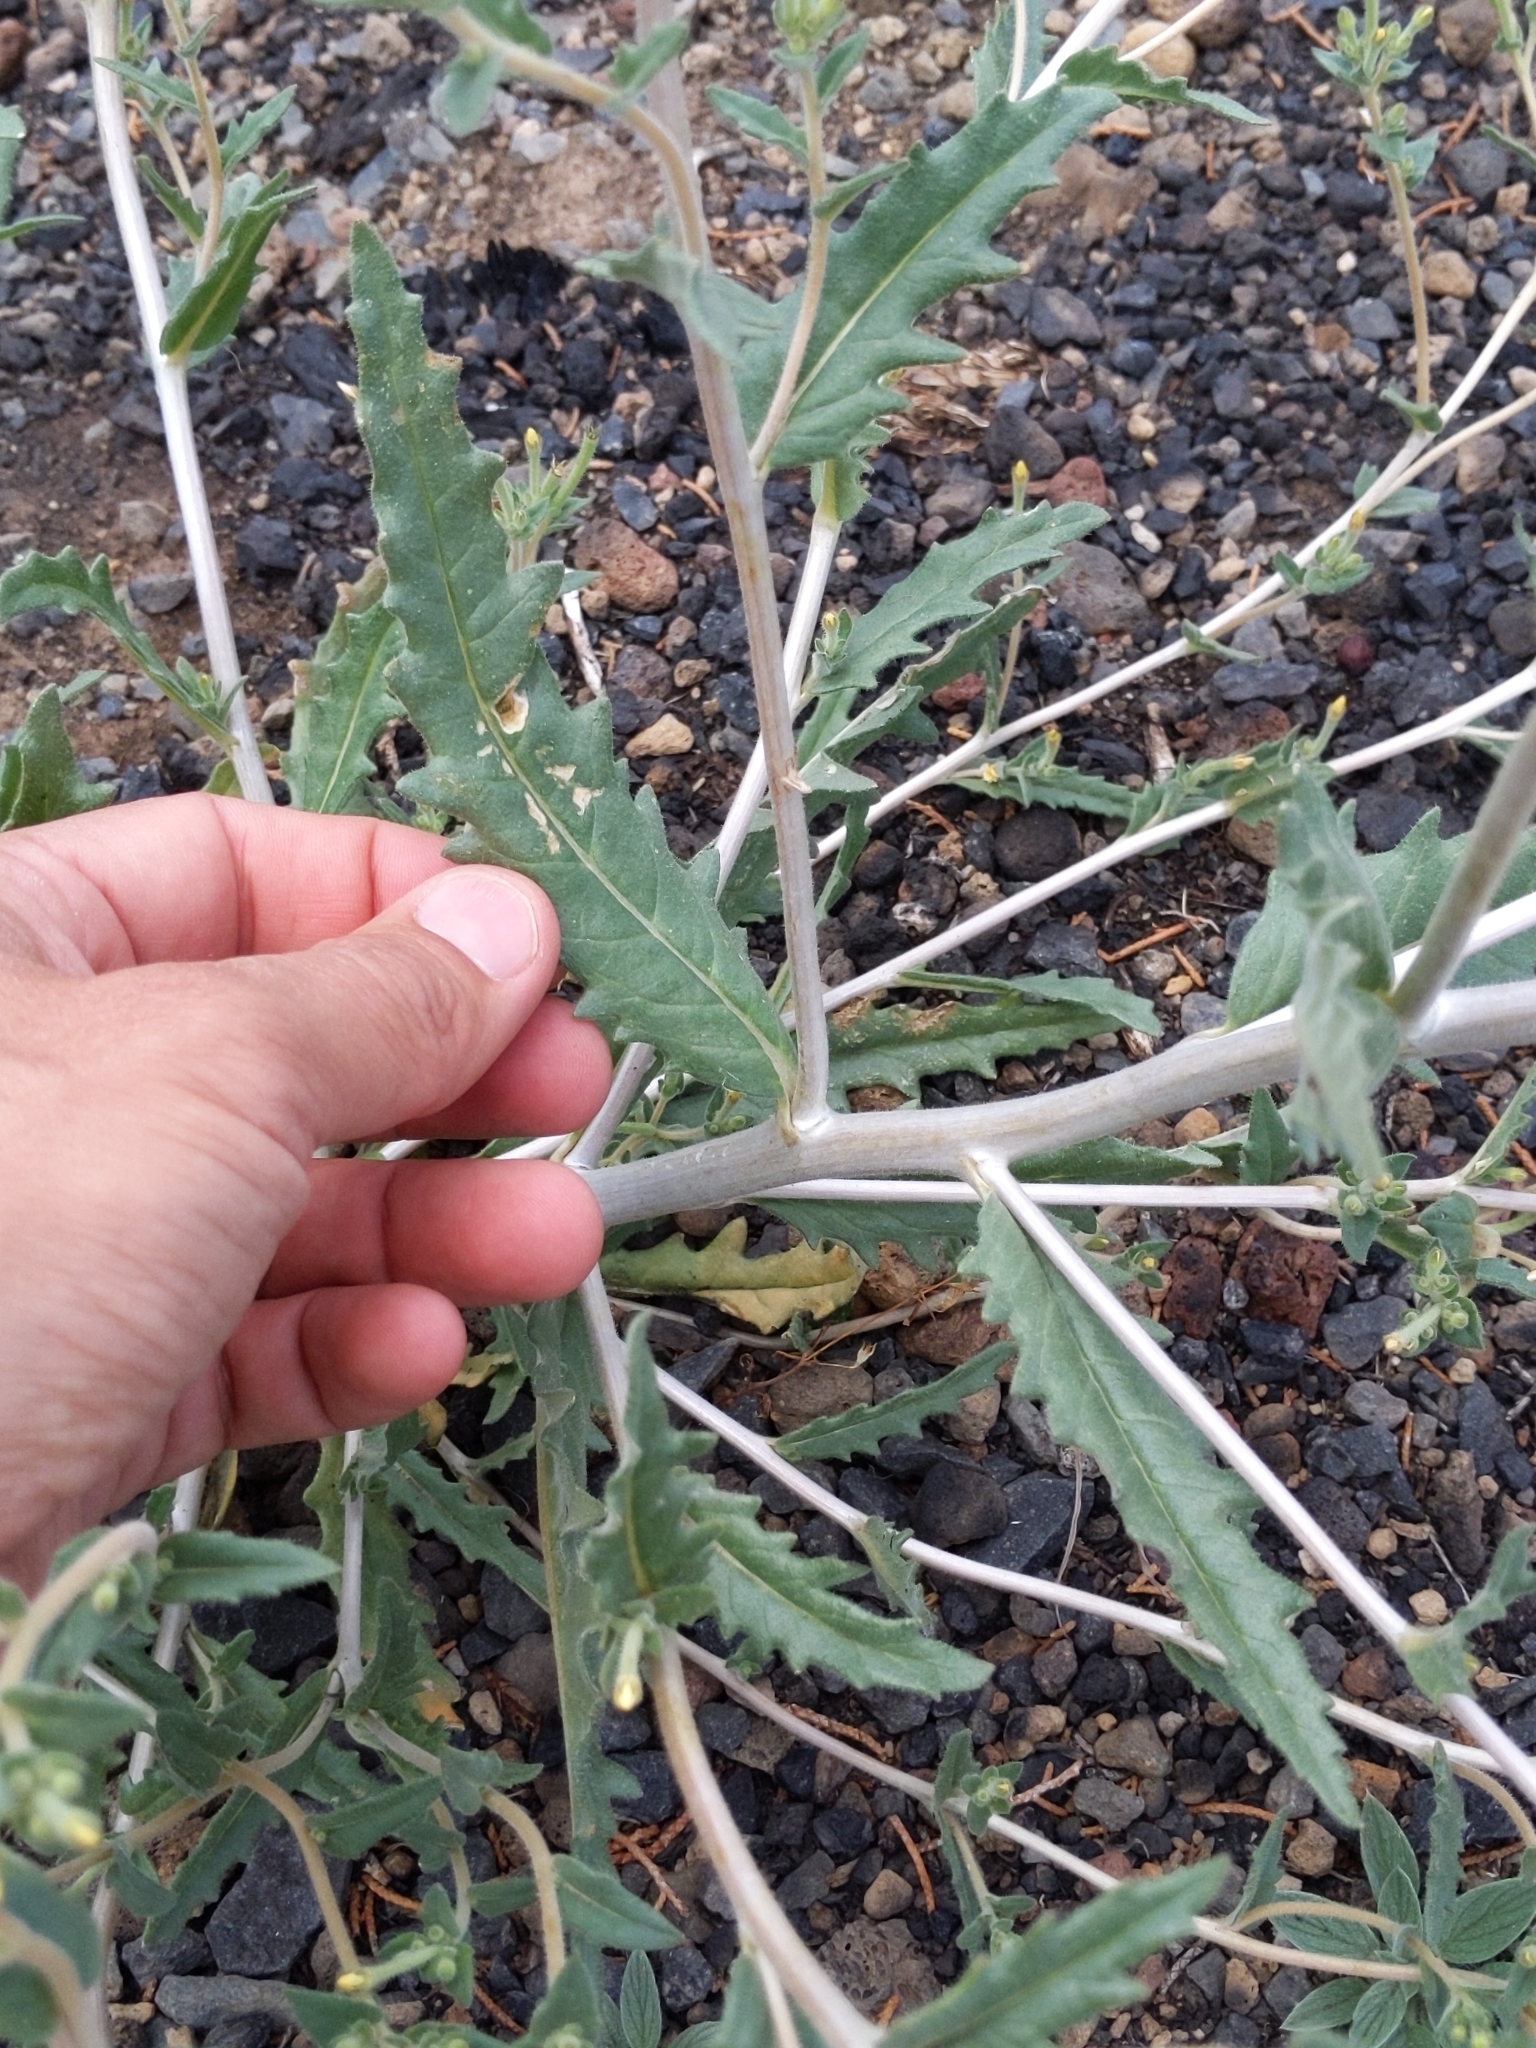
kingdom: Plantae
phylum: Tracheophyta
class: Magnoliopsida
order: Cornales
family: Loasaceae
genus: Mentzelia
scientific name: Mentzelia albicaulis
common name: White-stem blazingstar
